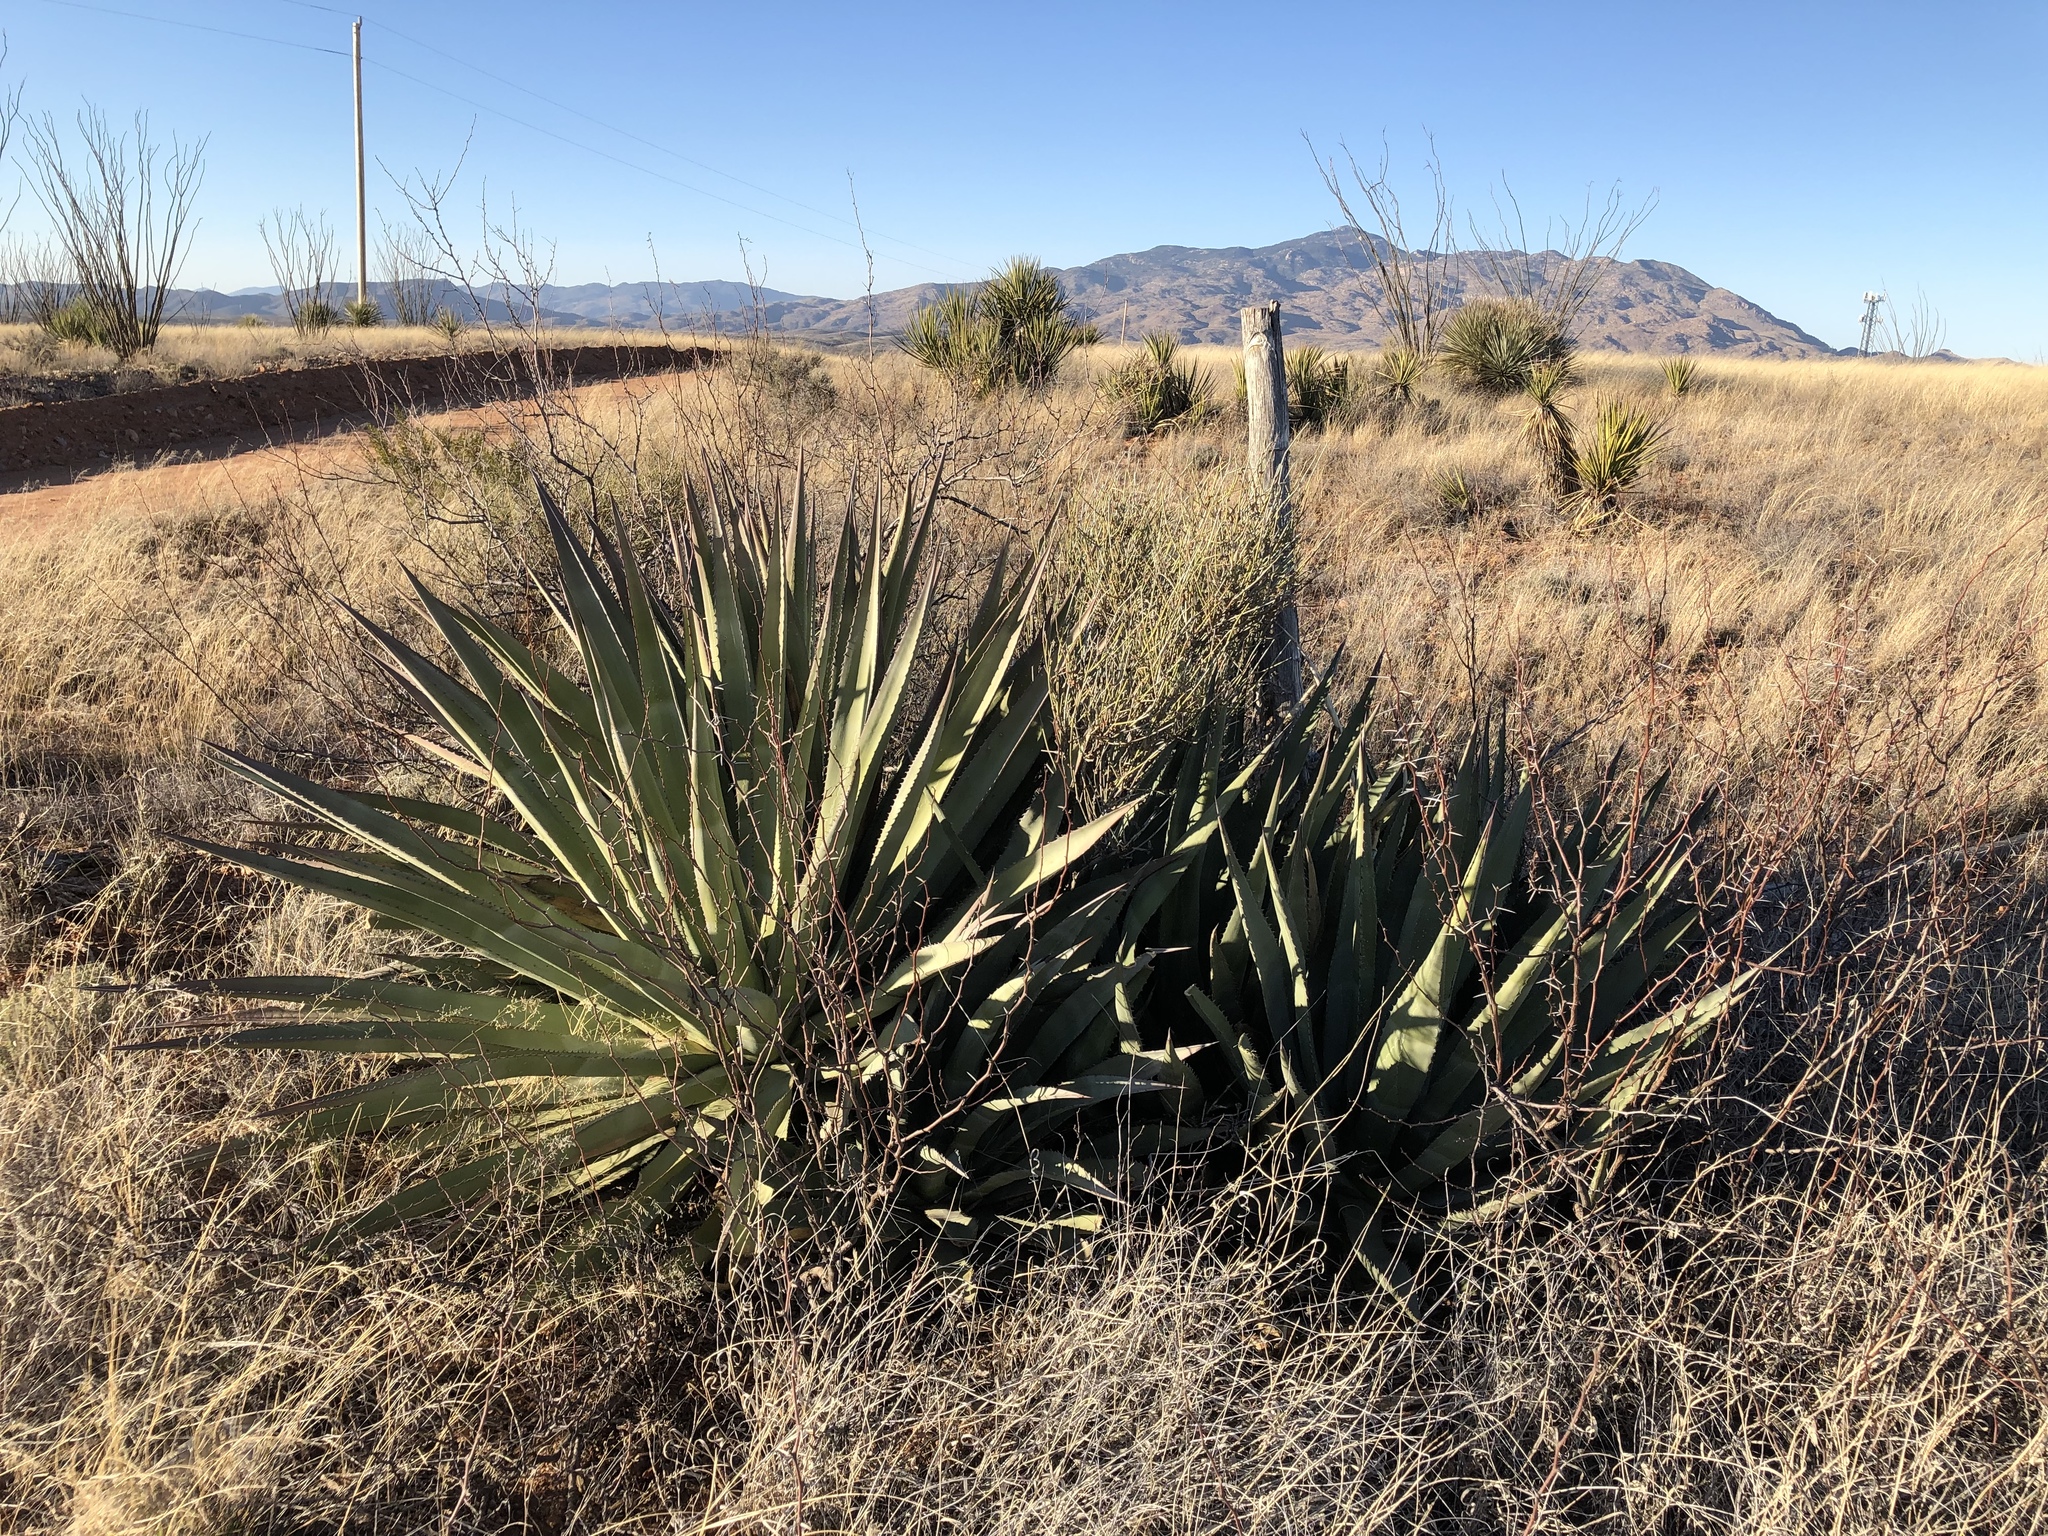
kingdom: Plantae
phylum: Tracheophyta
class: Liliopsida
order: Asparagales
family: Asparagaceae
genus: Agave
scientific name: Agave palmeri
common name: Palmer agave
